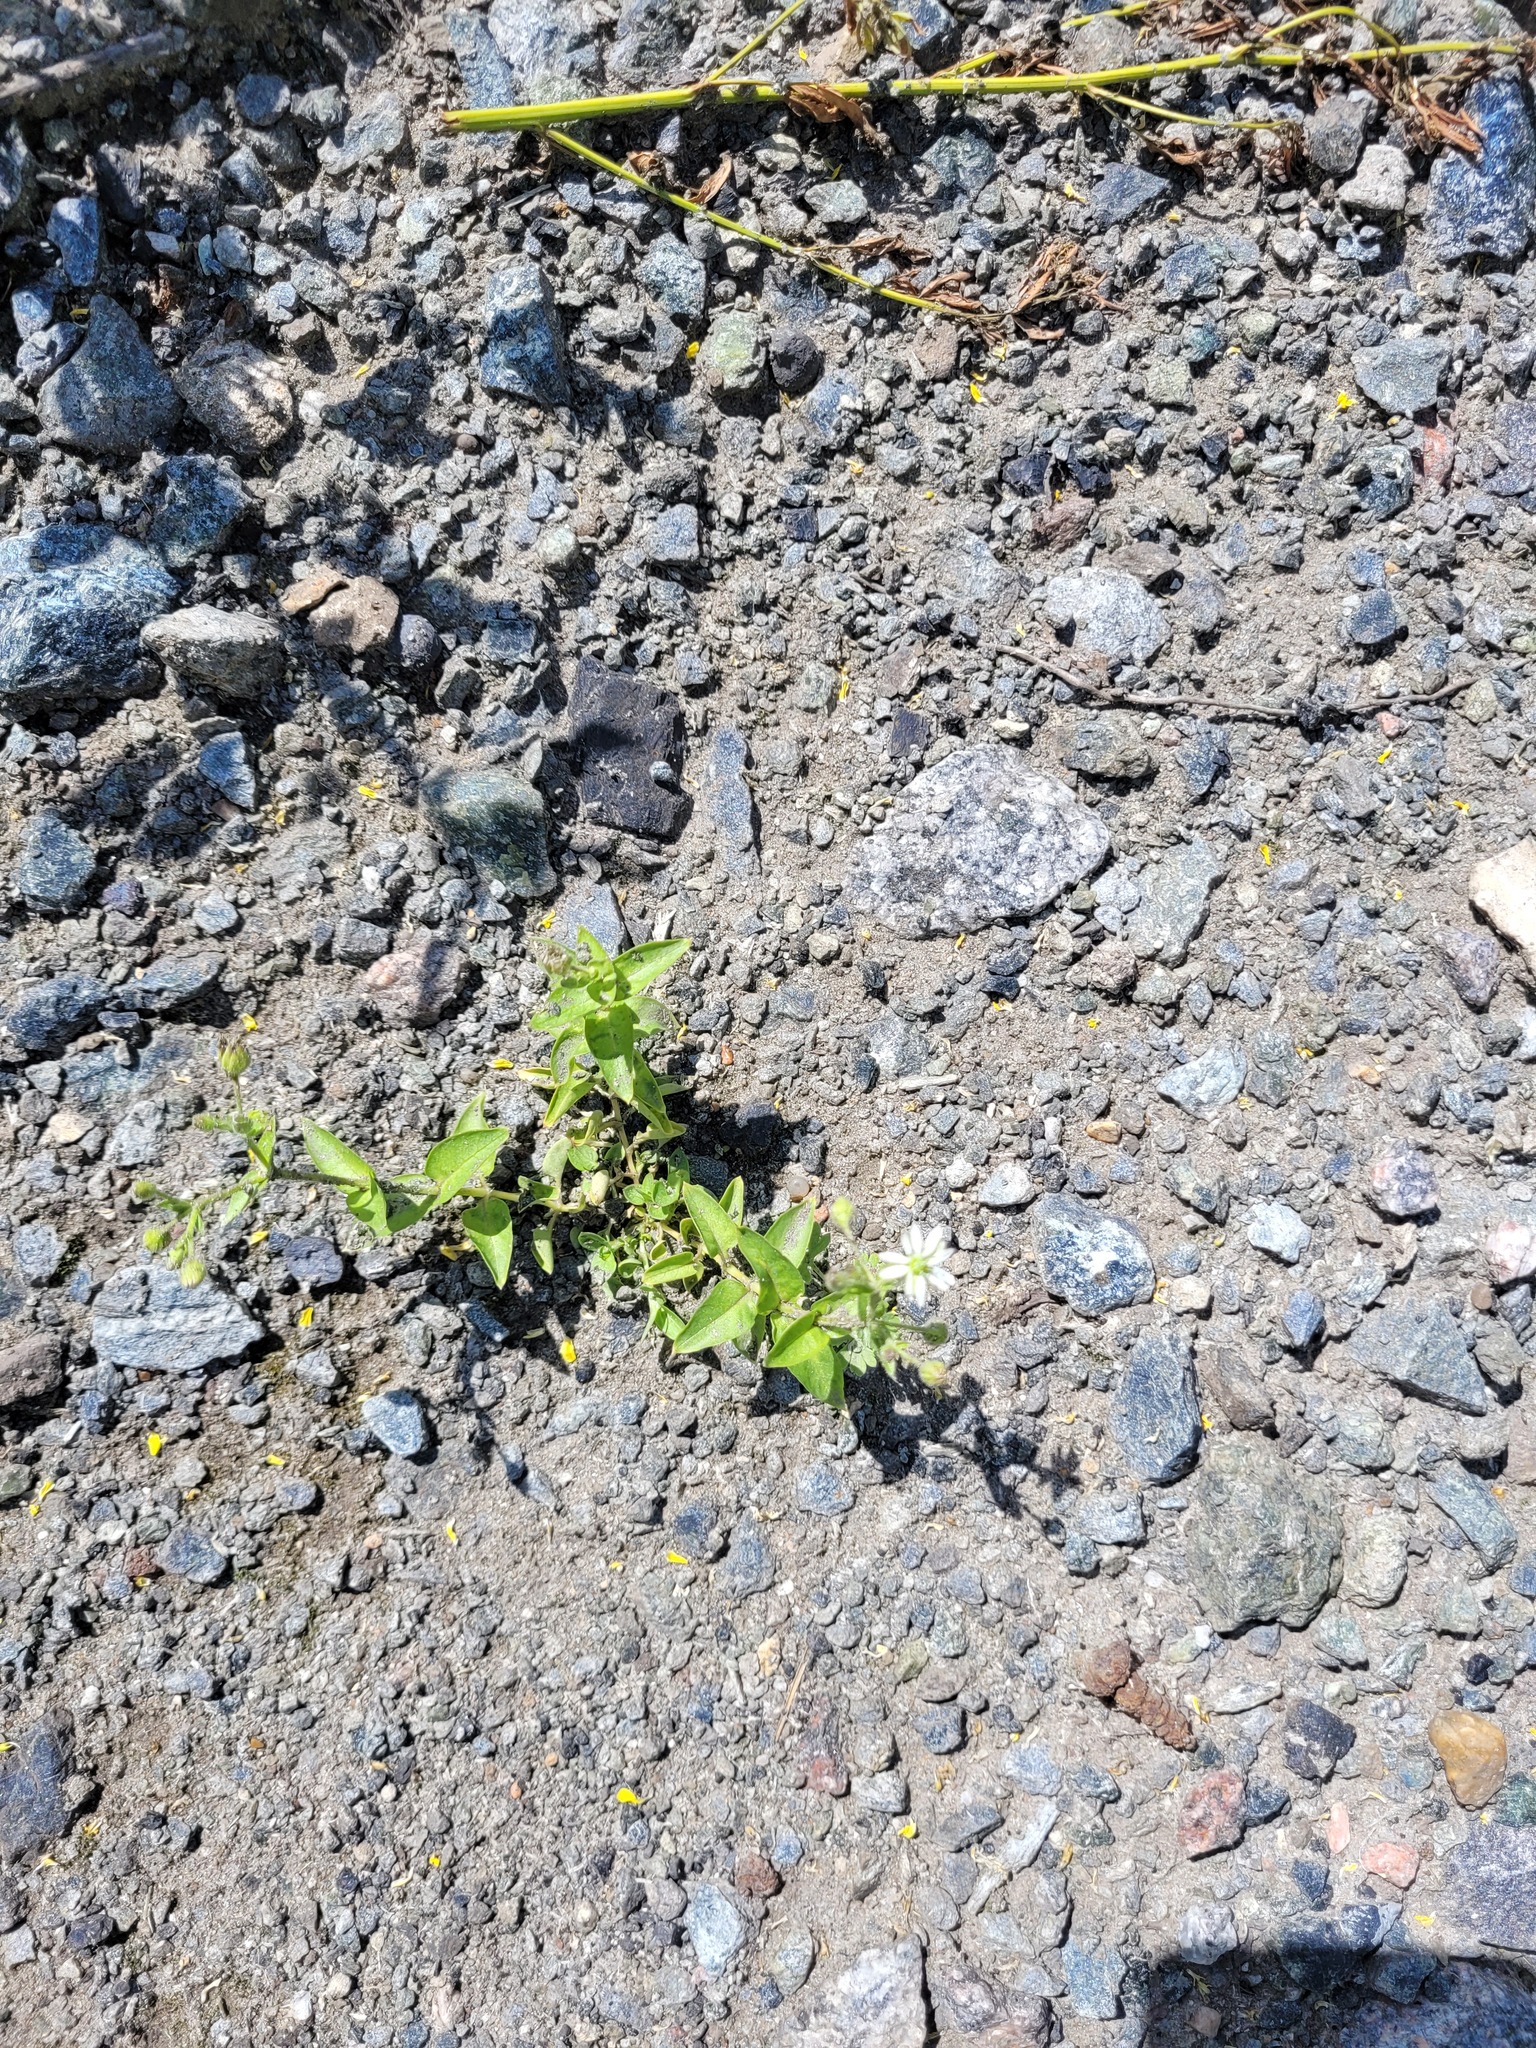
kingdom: Plantae
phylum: Tracheophyta
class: Magnoliopsida
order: Caryophyllales
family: Caryophyllaceae
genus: Stellaria
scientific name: Stellaria aquatica
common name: Water chickweed
